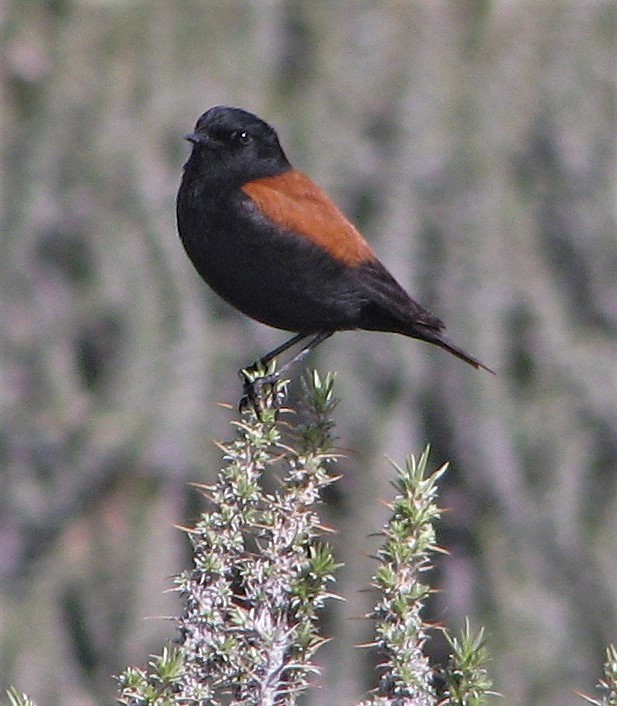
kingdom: Animalia
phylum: Chordata
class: Aves
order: Passeriformes
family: Tyrannidae
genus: Lessonia
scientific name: Lessonia rufa
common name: Austral negrito
